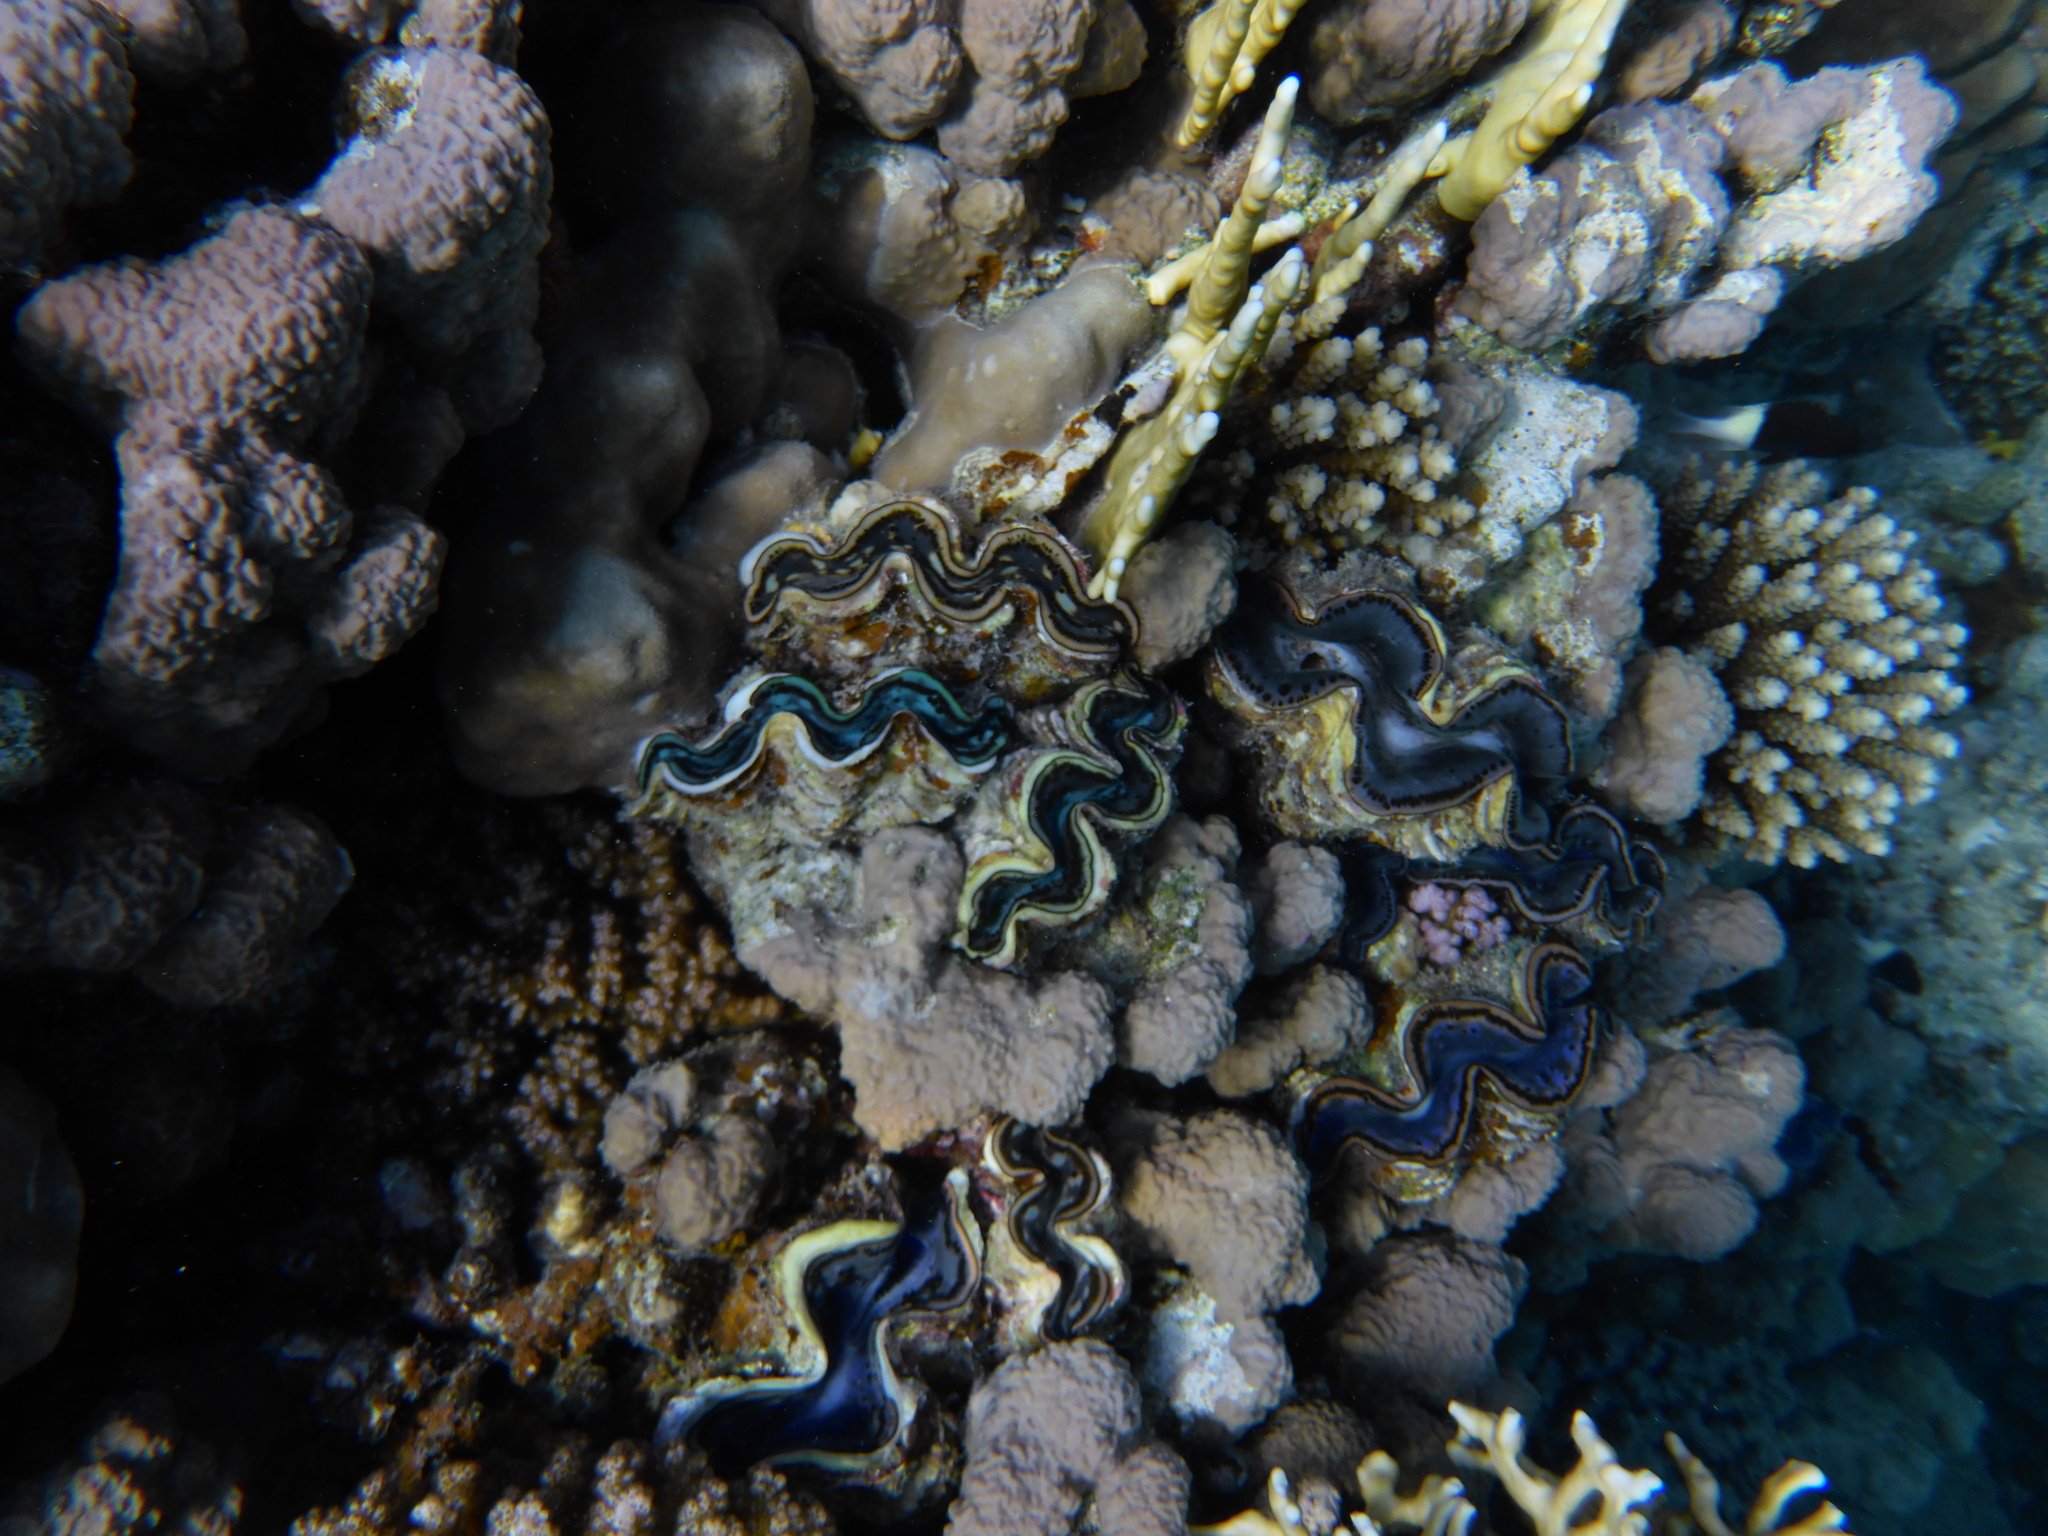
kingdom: Animalia
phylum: Mollusca
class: Bivalvia
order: Cardiida
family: Cardiidae
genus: Tridacna
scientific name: Tridacna maxima
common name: Small giant clam
